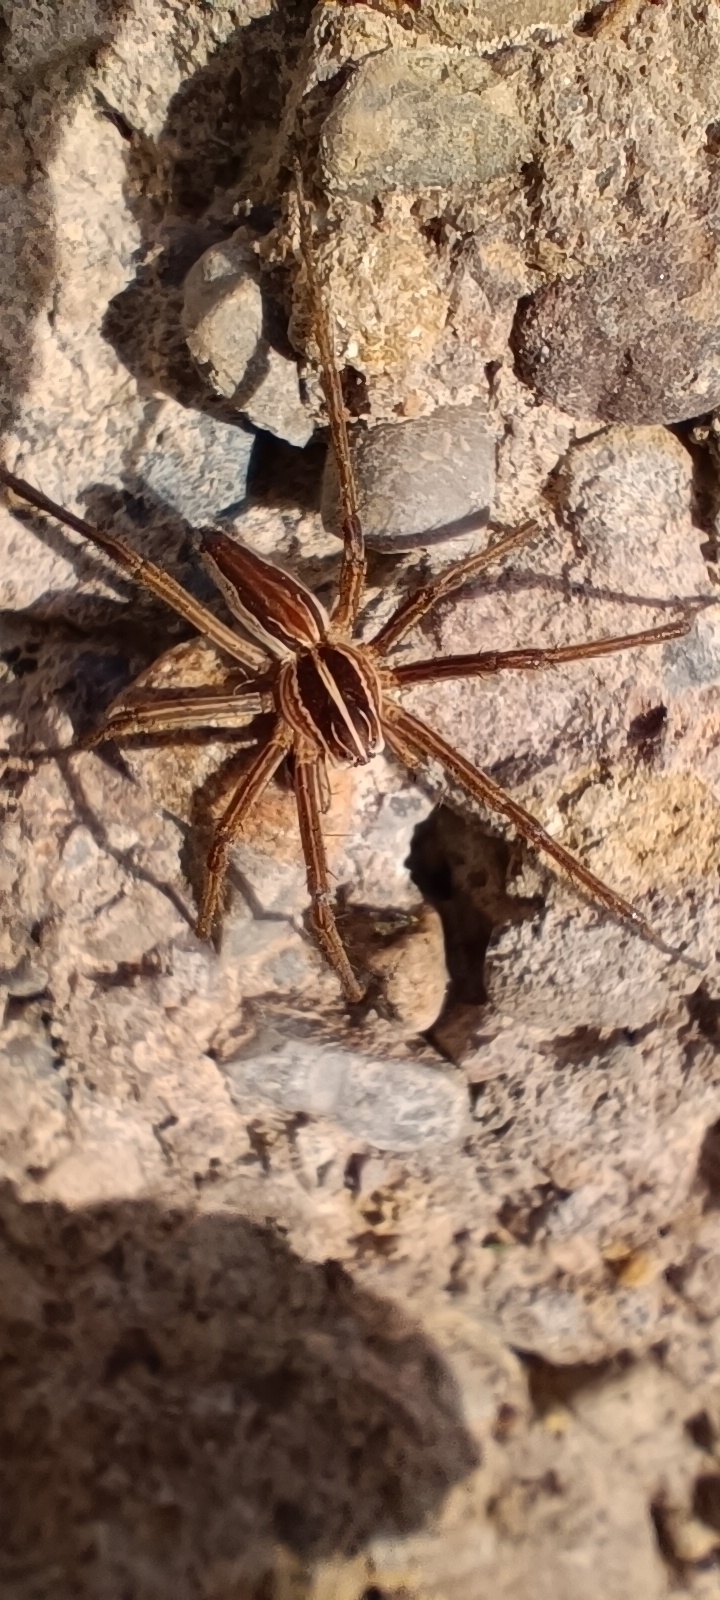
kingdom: Animalia
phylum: Arthropoda
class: Arachnida
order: Araneae
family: Pisauridae
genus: Pisaura
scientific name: Pisaura mirabilis
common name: Tent spider
